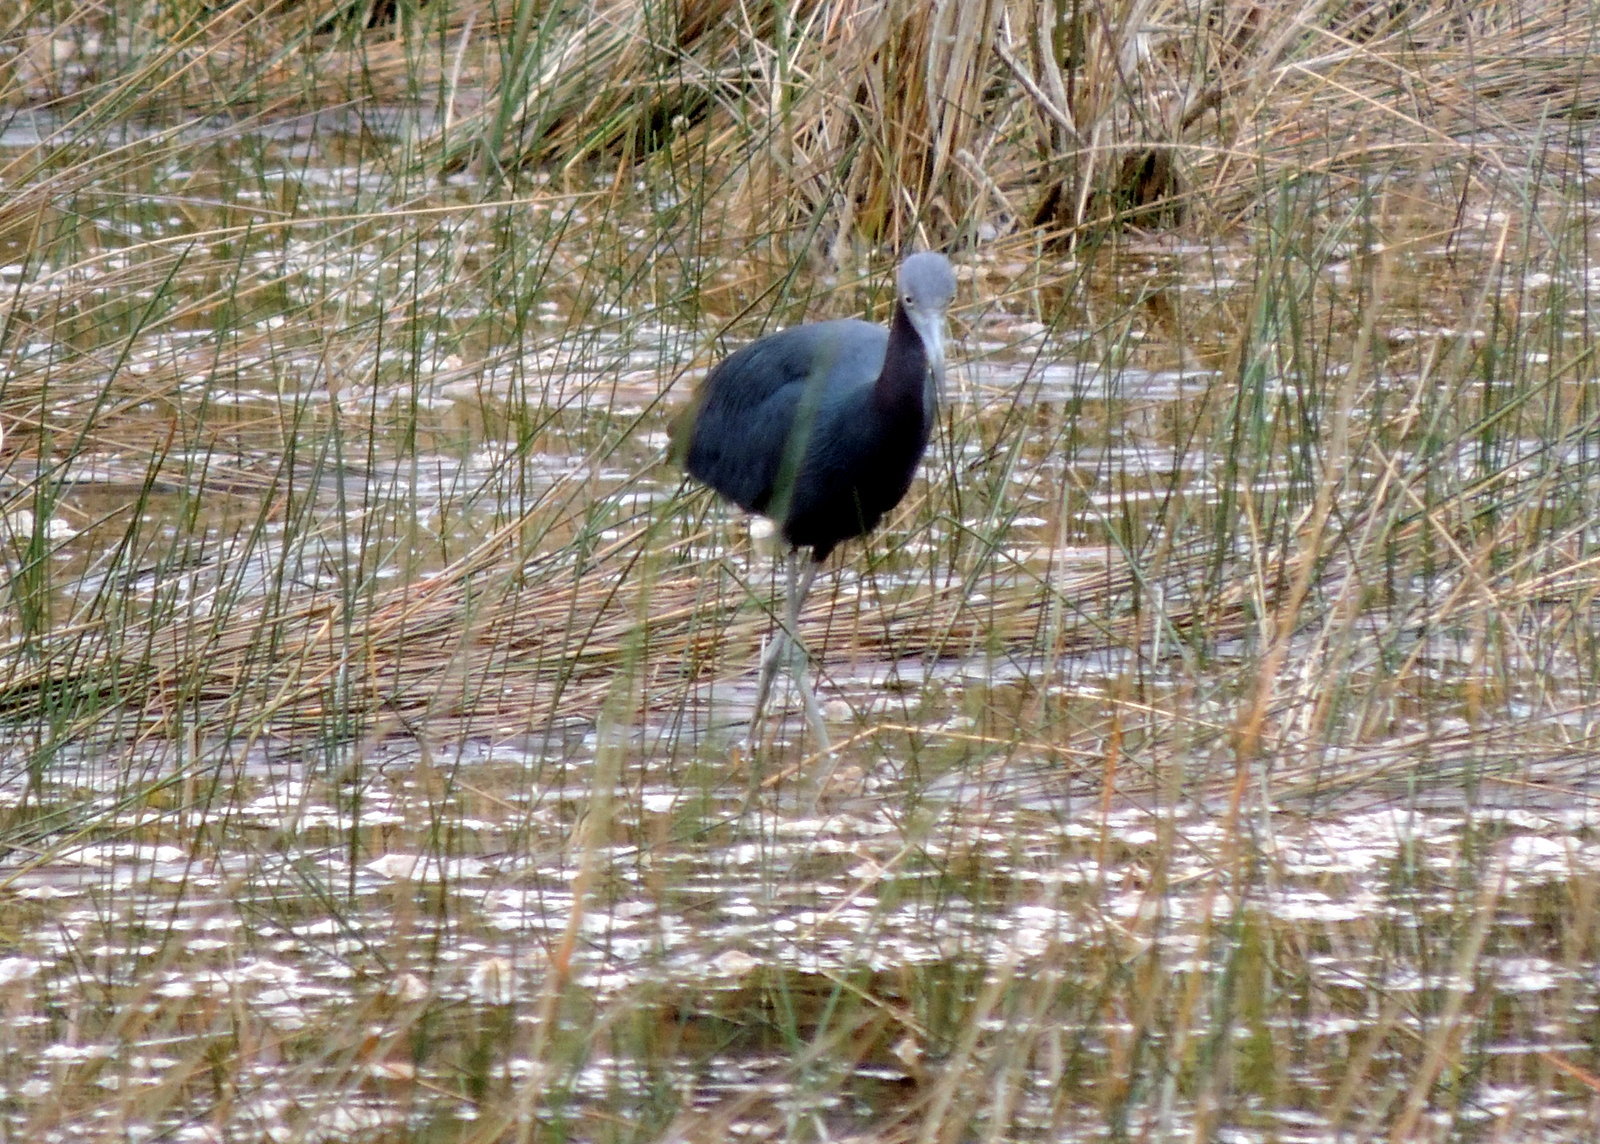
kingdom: Animalia
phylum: Chordata
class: Aves
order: Pelecaniformes
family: Ardeidae
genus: Egretta
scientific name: Egretta caerulea
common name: Little blue heron
